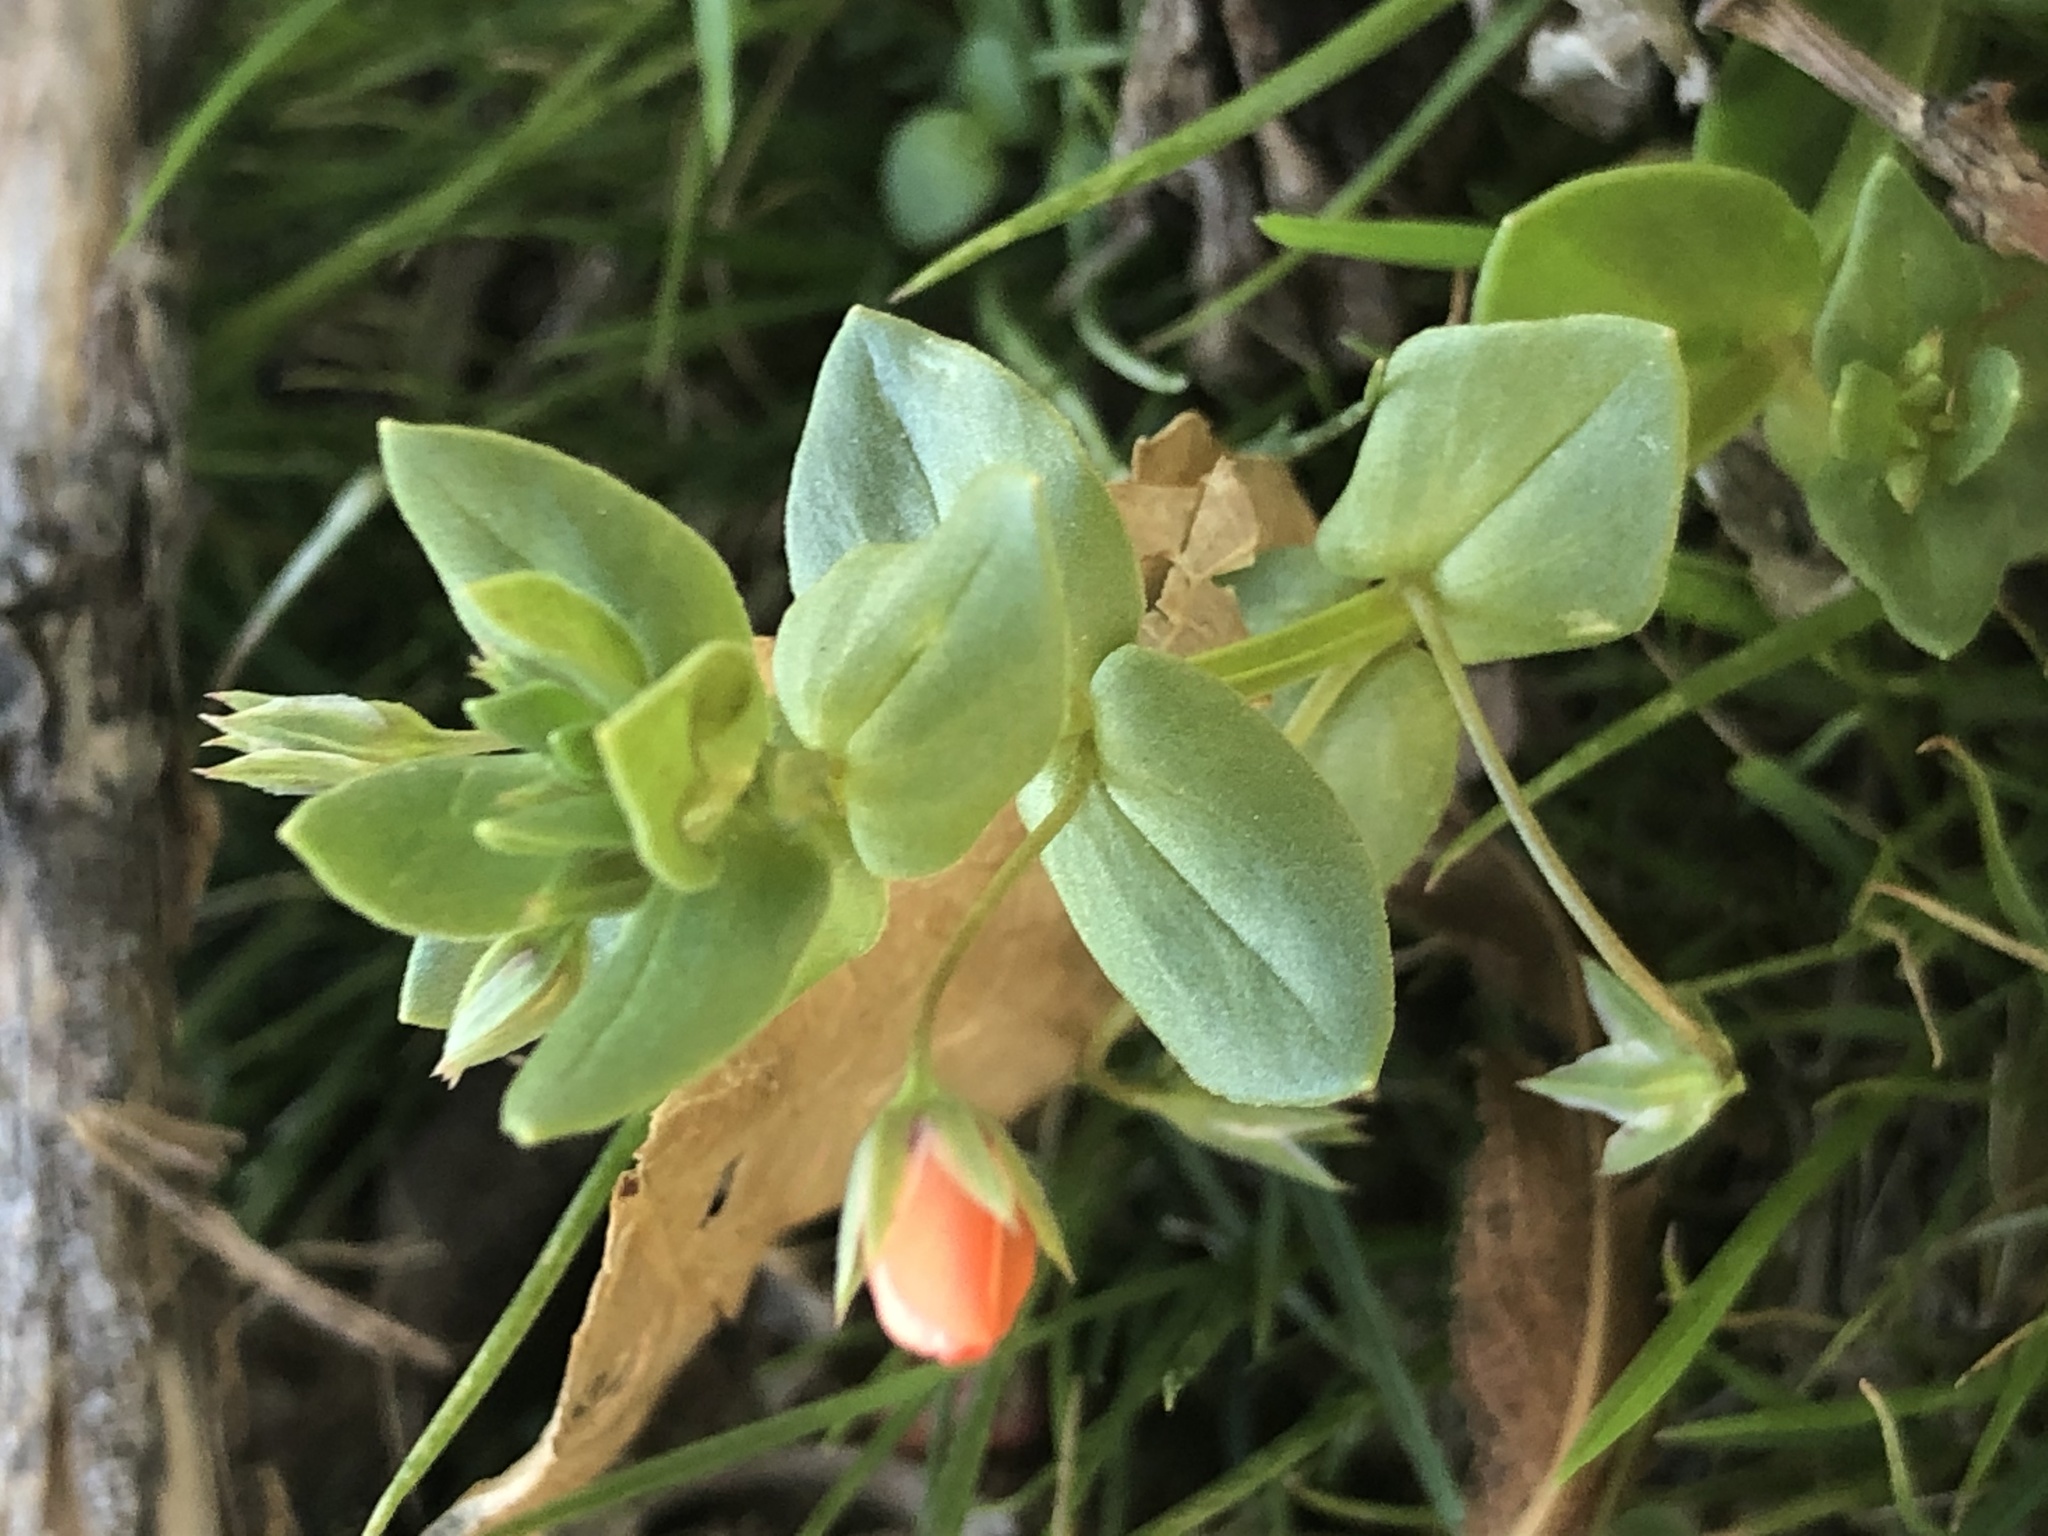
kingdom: Plantae
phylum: Tracheophyta
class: Magnoliopsida
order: Ericales
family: Primulaceae
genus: Lysimachia
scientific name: Lysimachia arvensis
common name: Scarlet pimpernel
